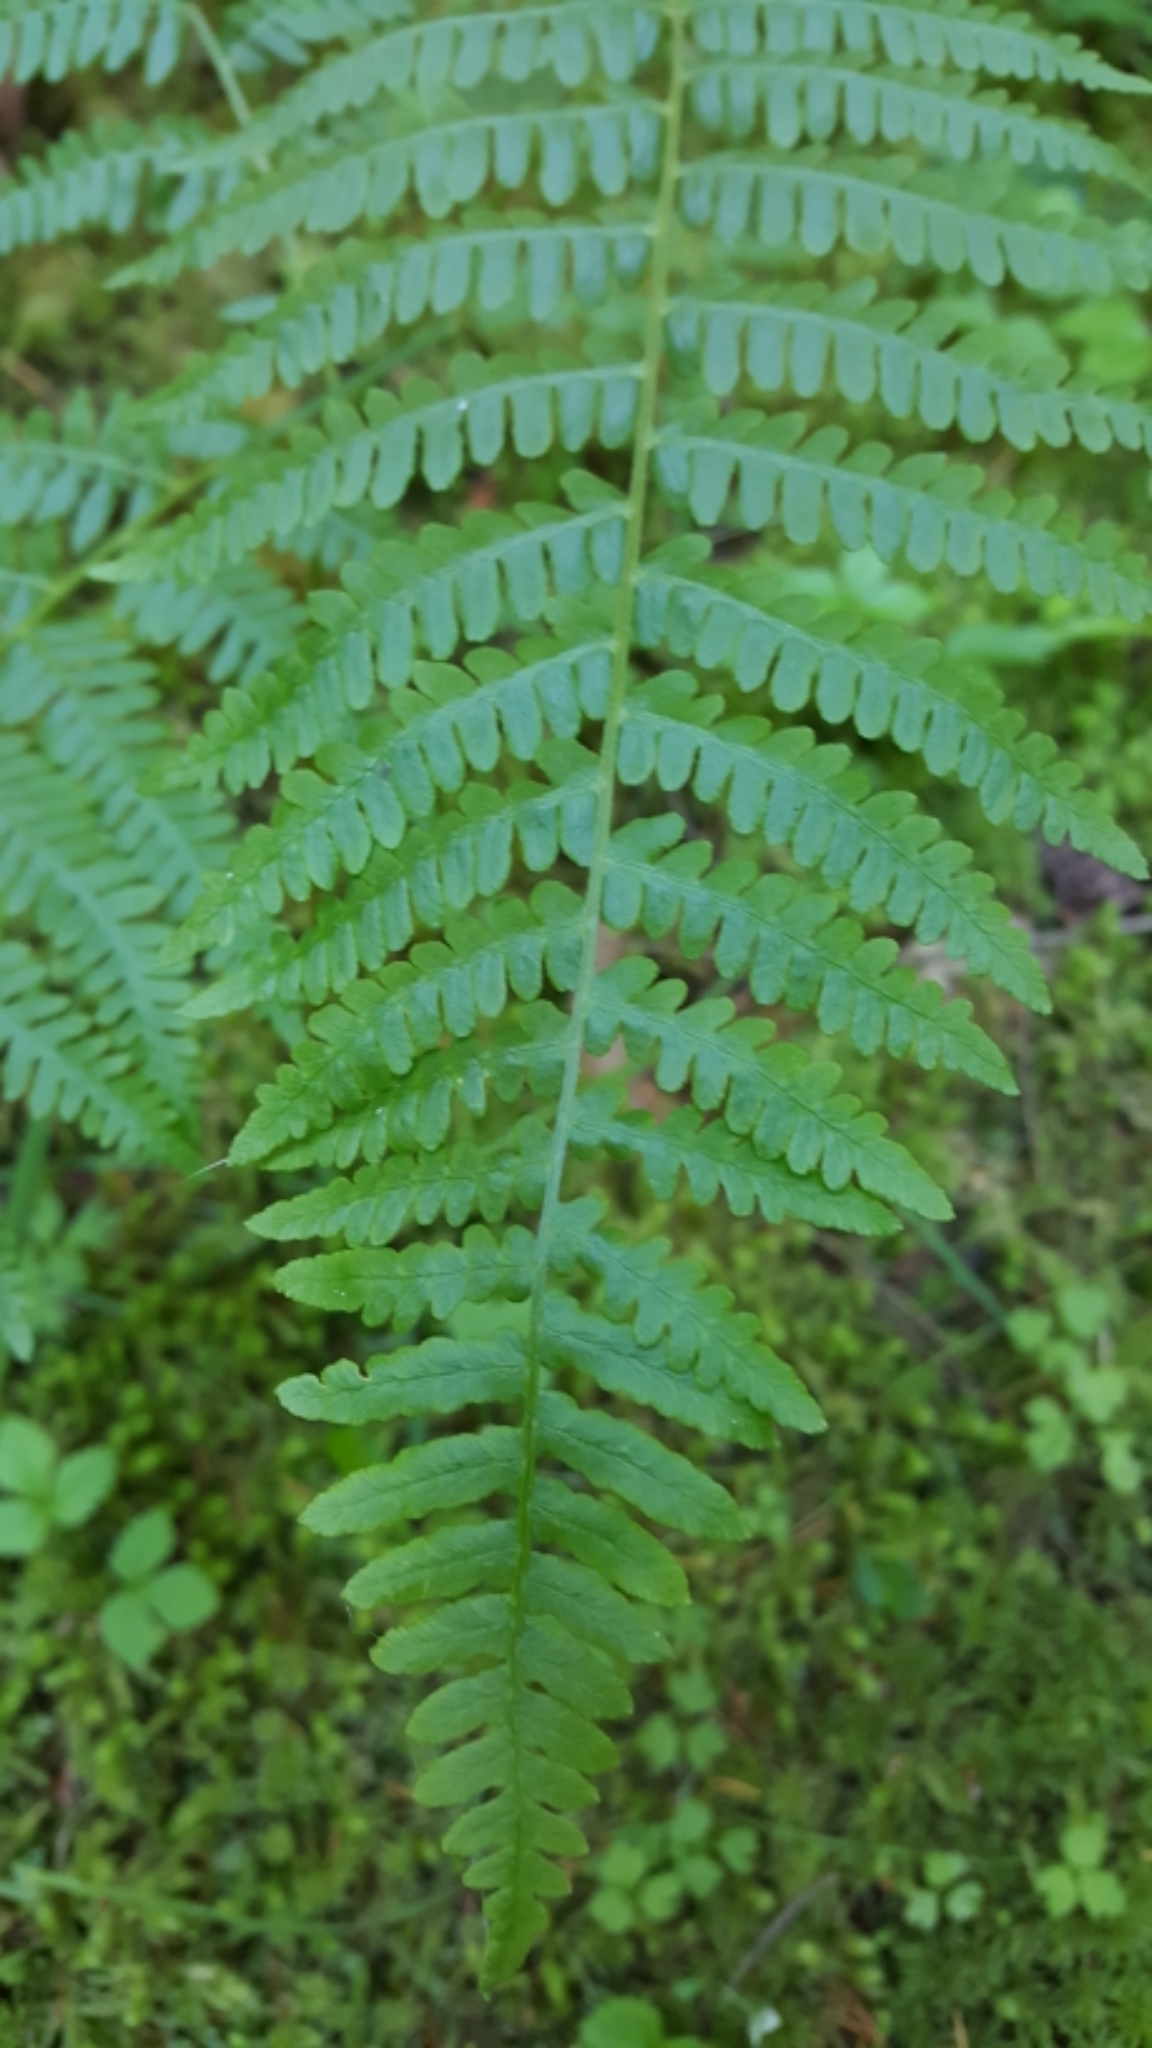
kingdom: Plantae
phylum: Tracheophyta
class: Polypodiopsida
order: Polypodiales
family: Dennstaedtiaceae
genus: Pteridium
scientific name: Pteridium aquilinum
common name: Bracken
